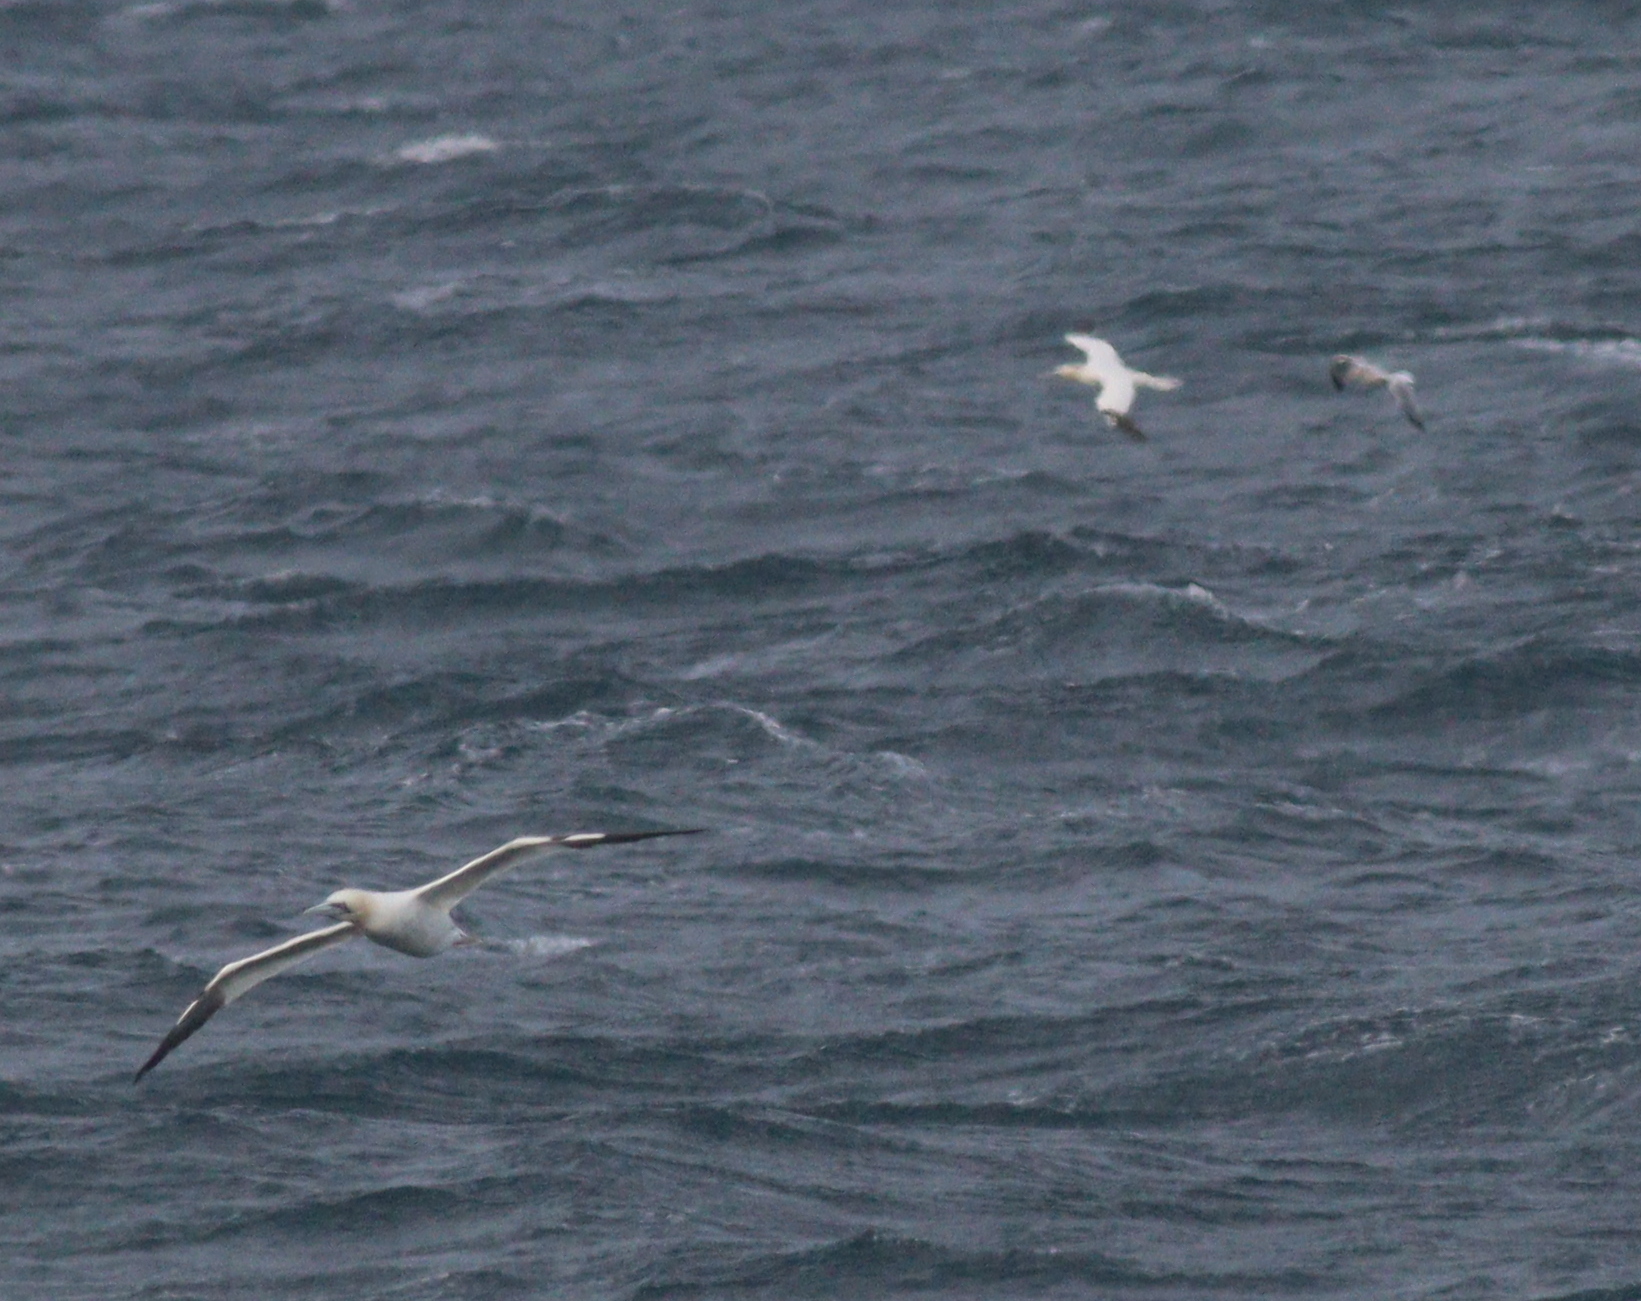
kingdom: Animalia
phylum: Chordata
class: Aves
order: Suliformes
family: Sulidae
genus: Morus
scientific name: Morus bassanus
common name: Northern gannet
